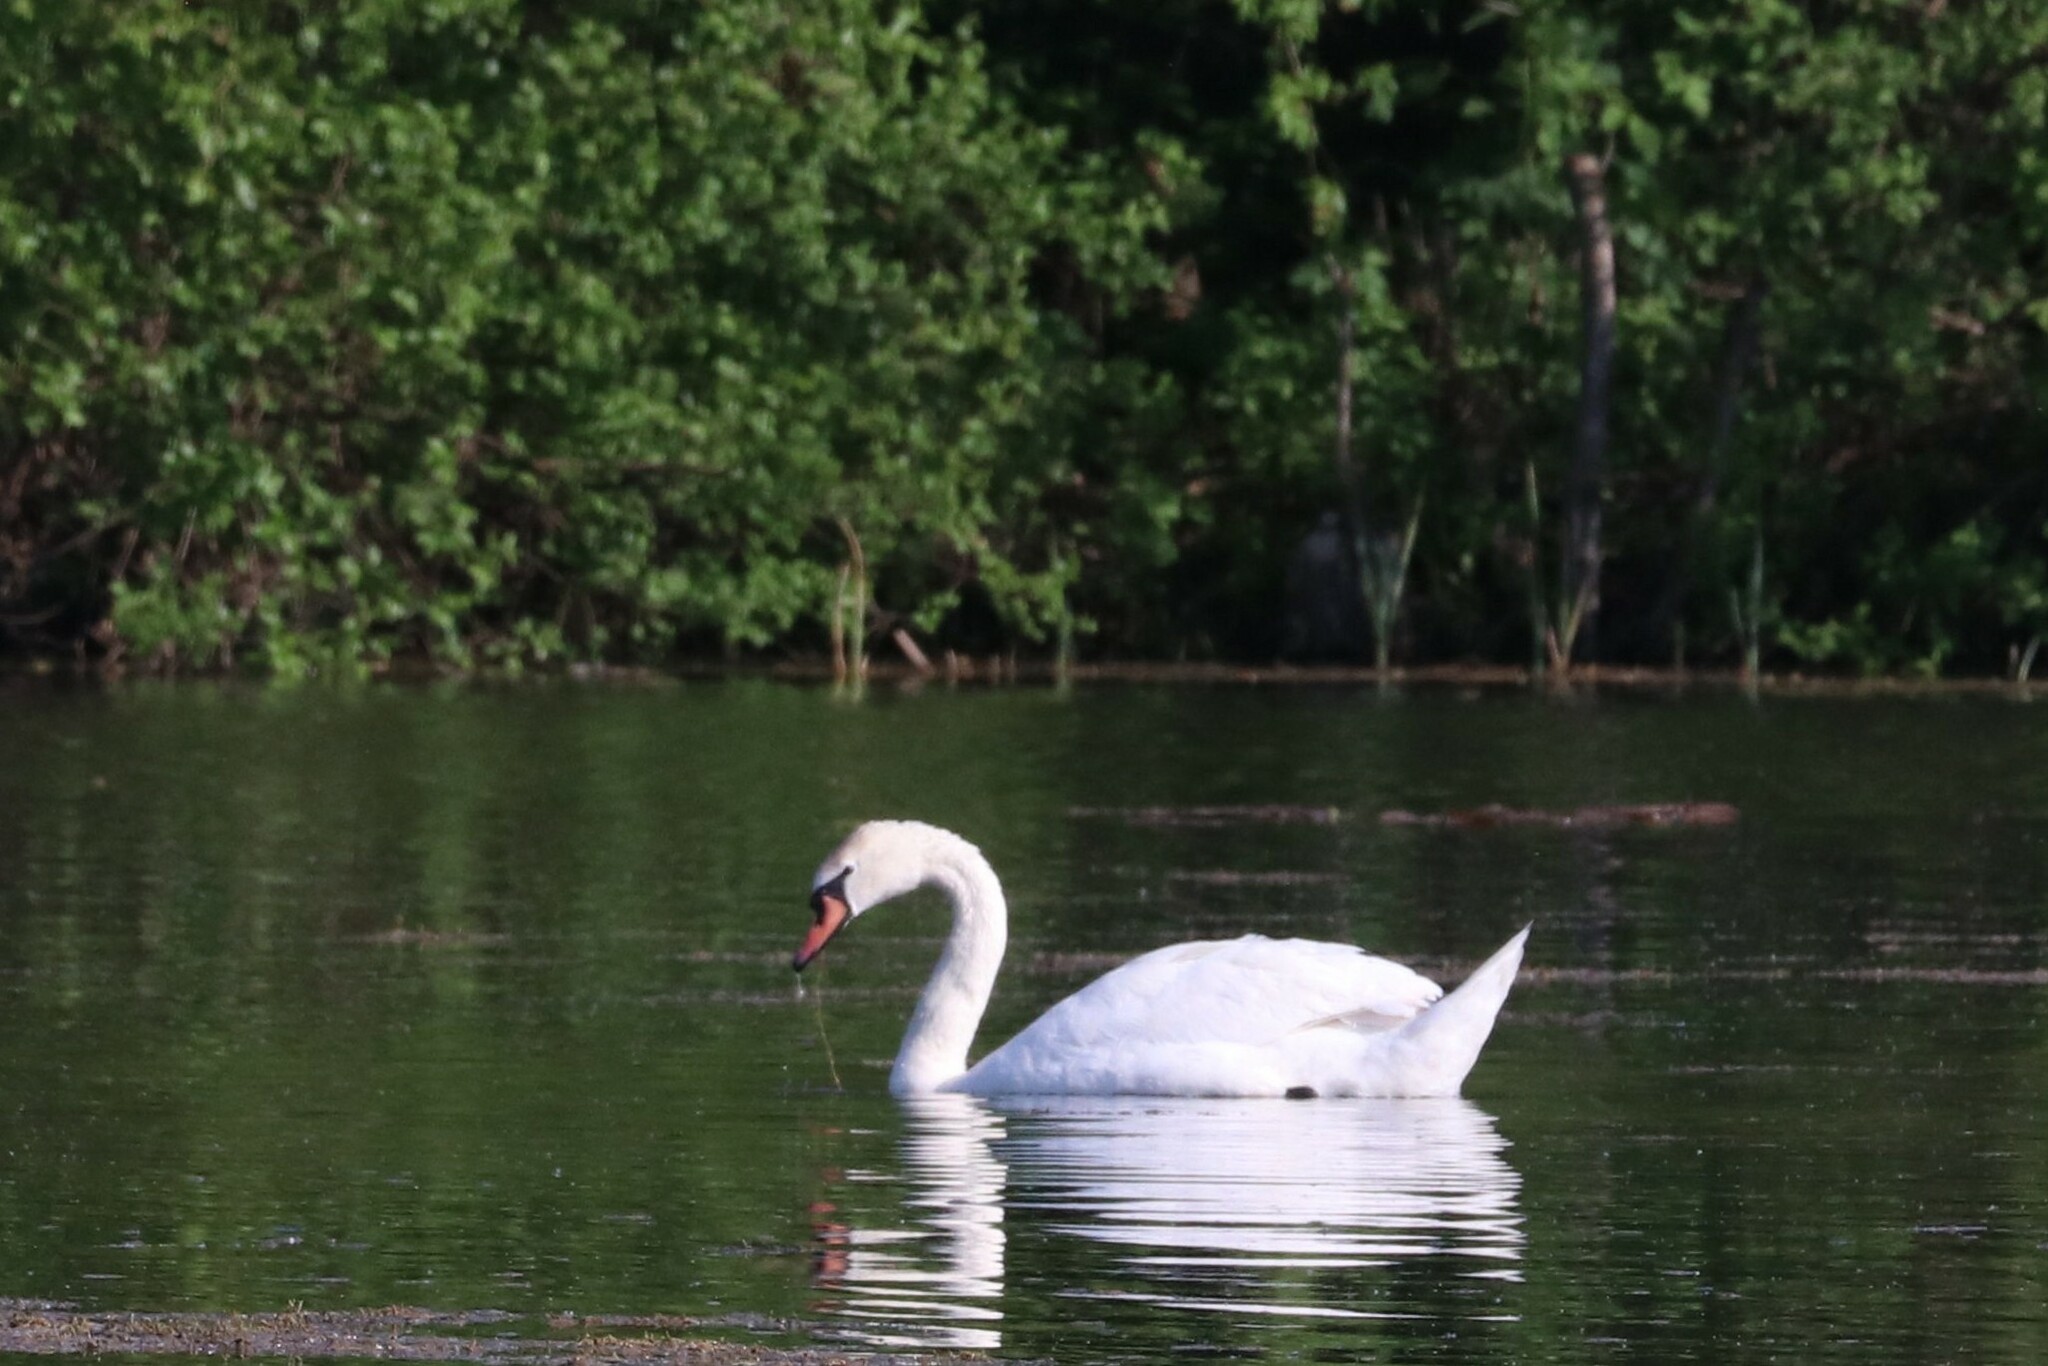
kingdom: Animalia
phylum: Chordata
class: Aves
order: Anseriformes
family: Anatidae
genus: Cygnus
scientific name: Cygnus olor
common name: Mute swan
